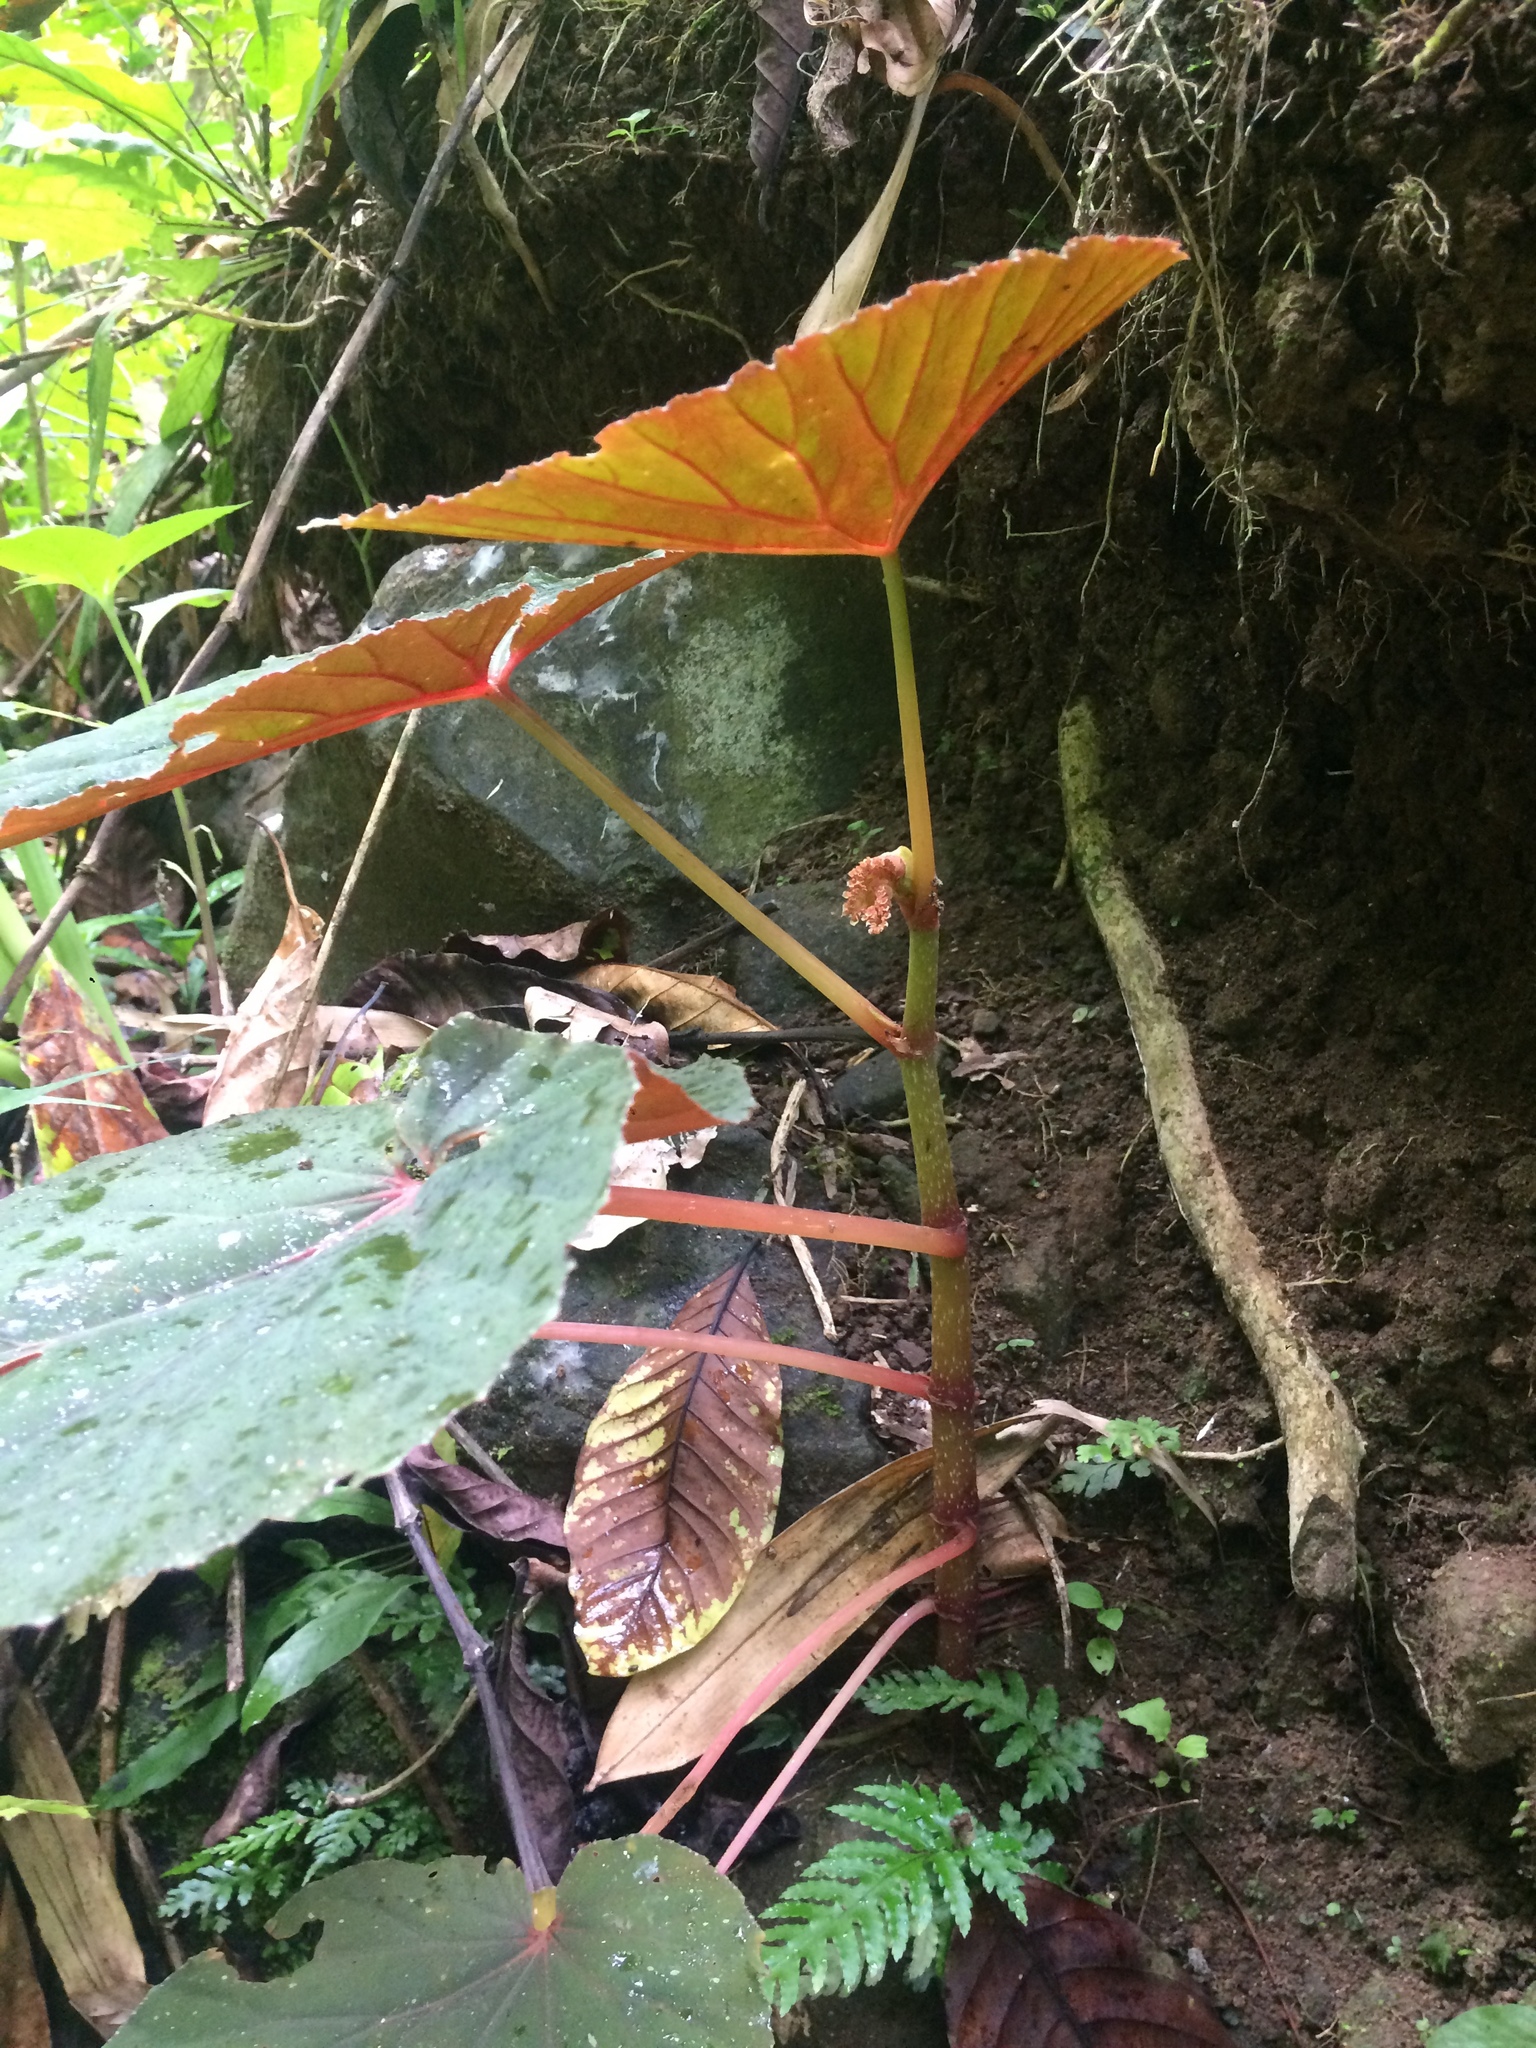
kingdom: Plantae
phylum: Tracheophyta
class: Magnoliopsida
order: Cucurbitales
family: Begoniaceae
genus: Begonia
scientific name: Begonia pseudolateralis
